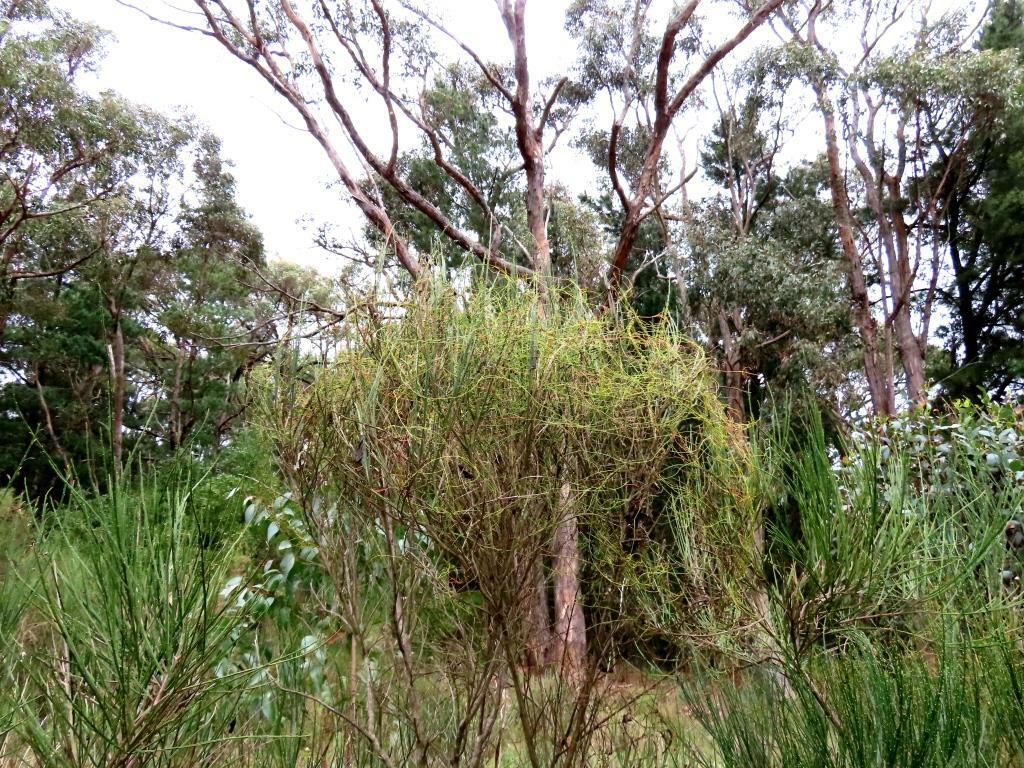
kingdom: Plantae
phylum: Tracheophyta
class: Magnoliopsida
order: Laurales
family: Lauraceae
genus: Cassytha
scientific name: Cassytha glabella
